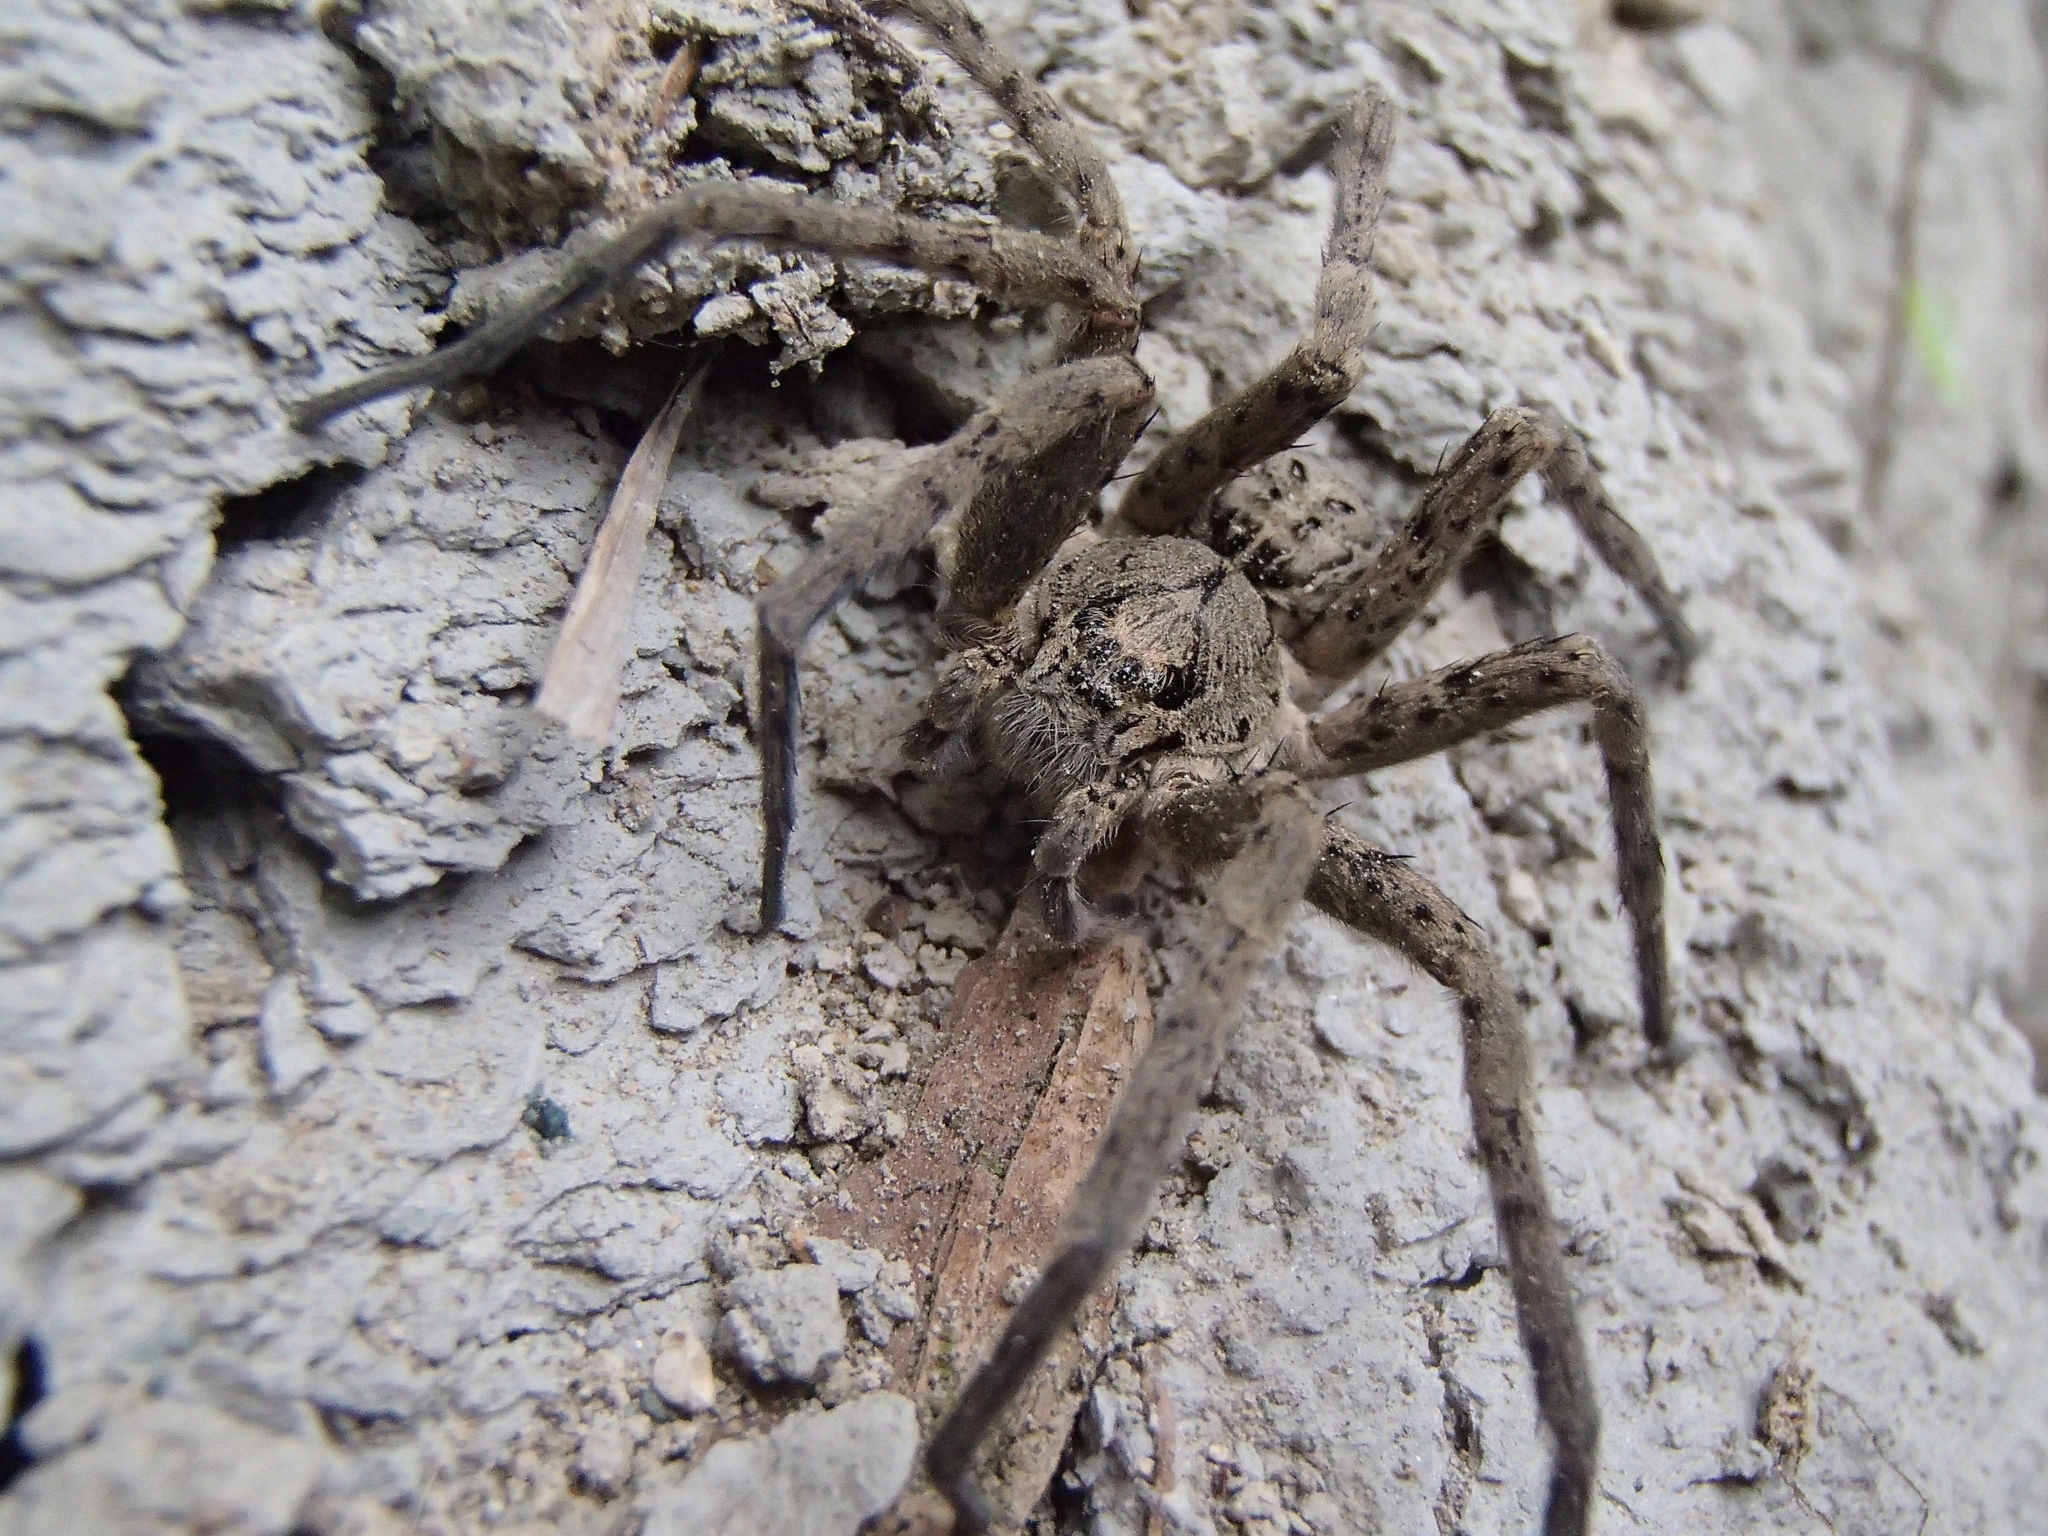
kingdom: Animalia
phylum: Arthropoda
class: Arachnida
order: Araneae
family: Pisauridae
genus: Dolomedes
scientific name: Dolomedes dondalei
